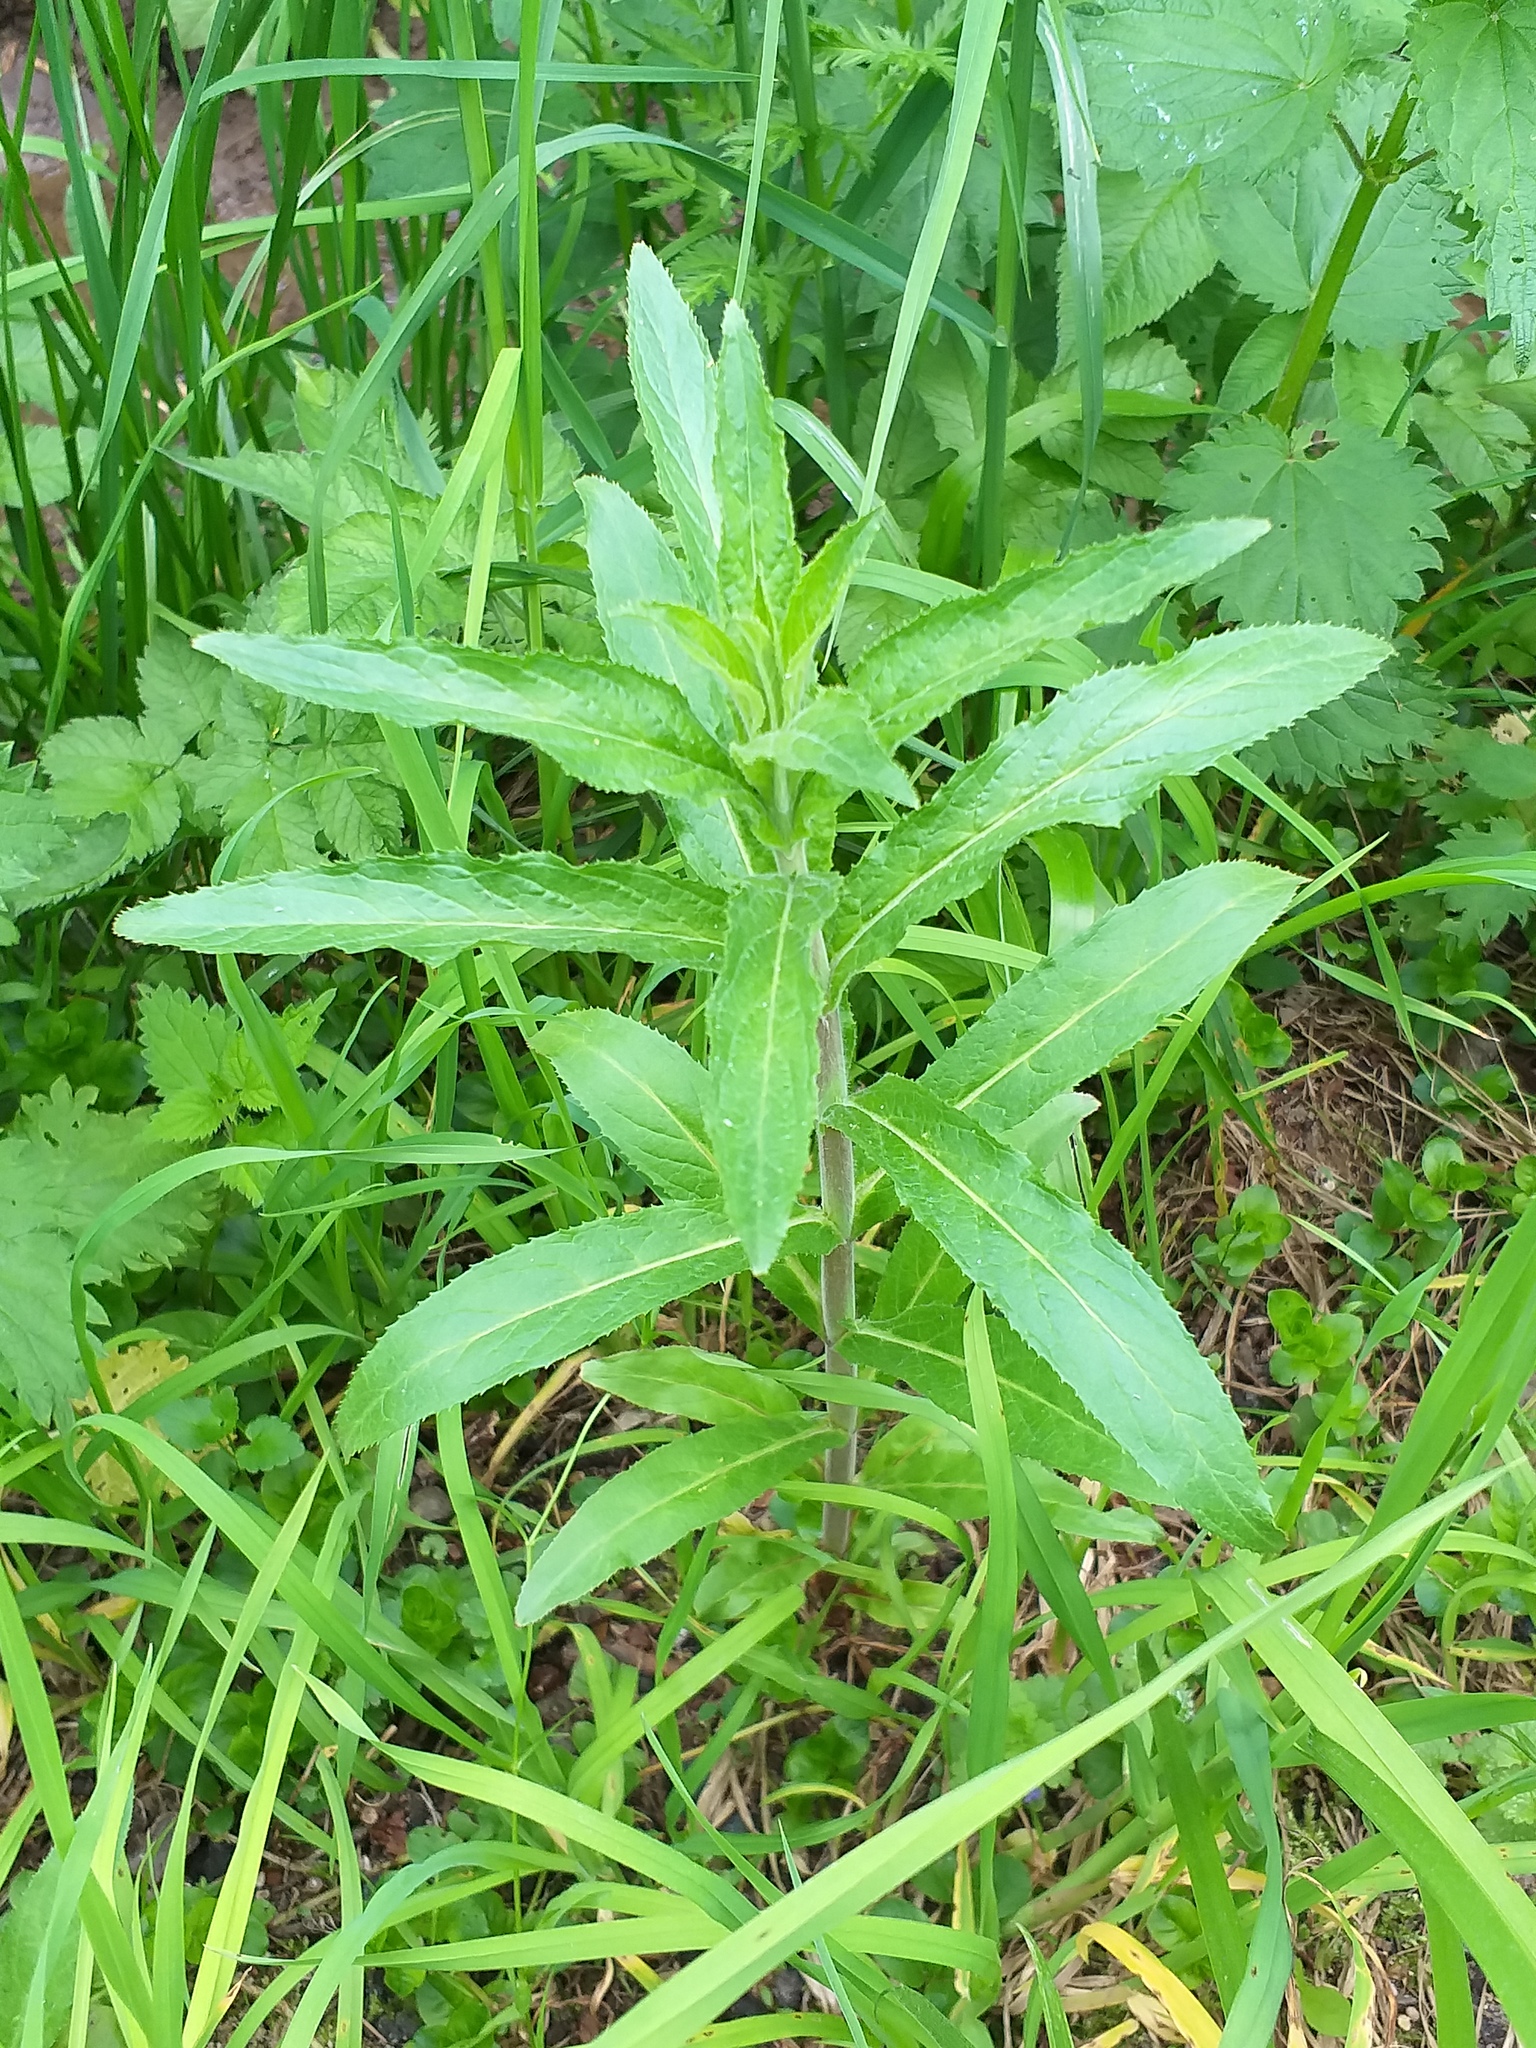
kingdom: Plantae
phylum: Tracheophyta
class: Magnoliopsida
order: Myrtales
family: Onagraceae
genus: Epilobium
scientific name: Epilobium hirsutum
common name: Great willowherb
